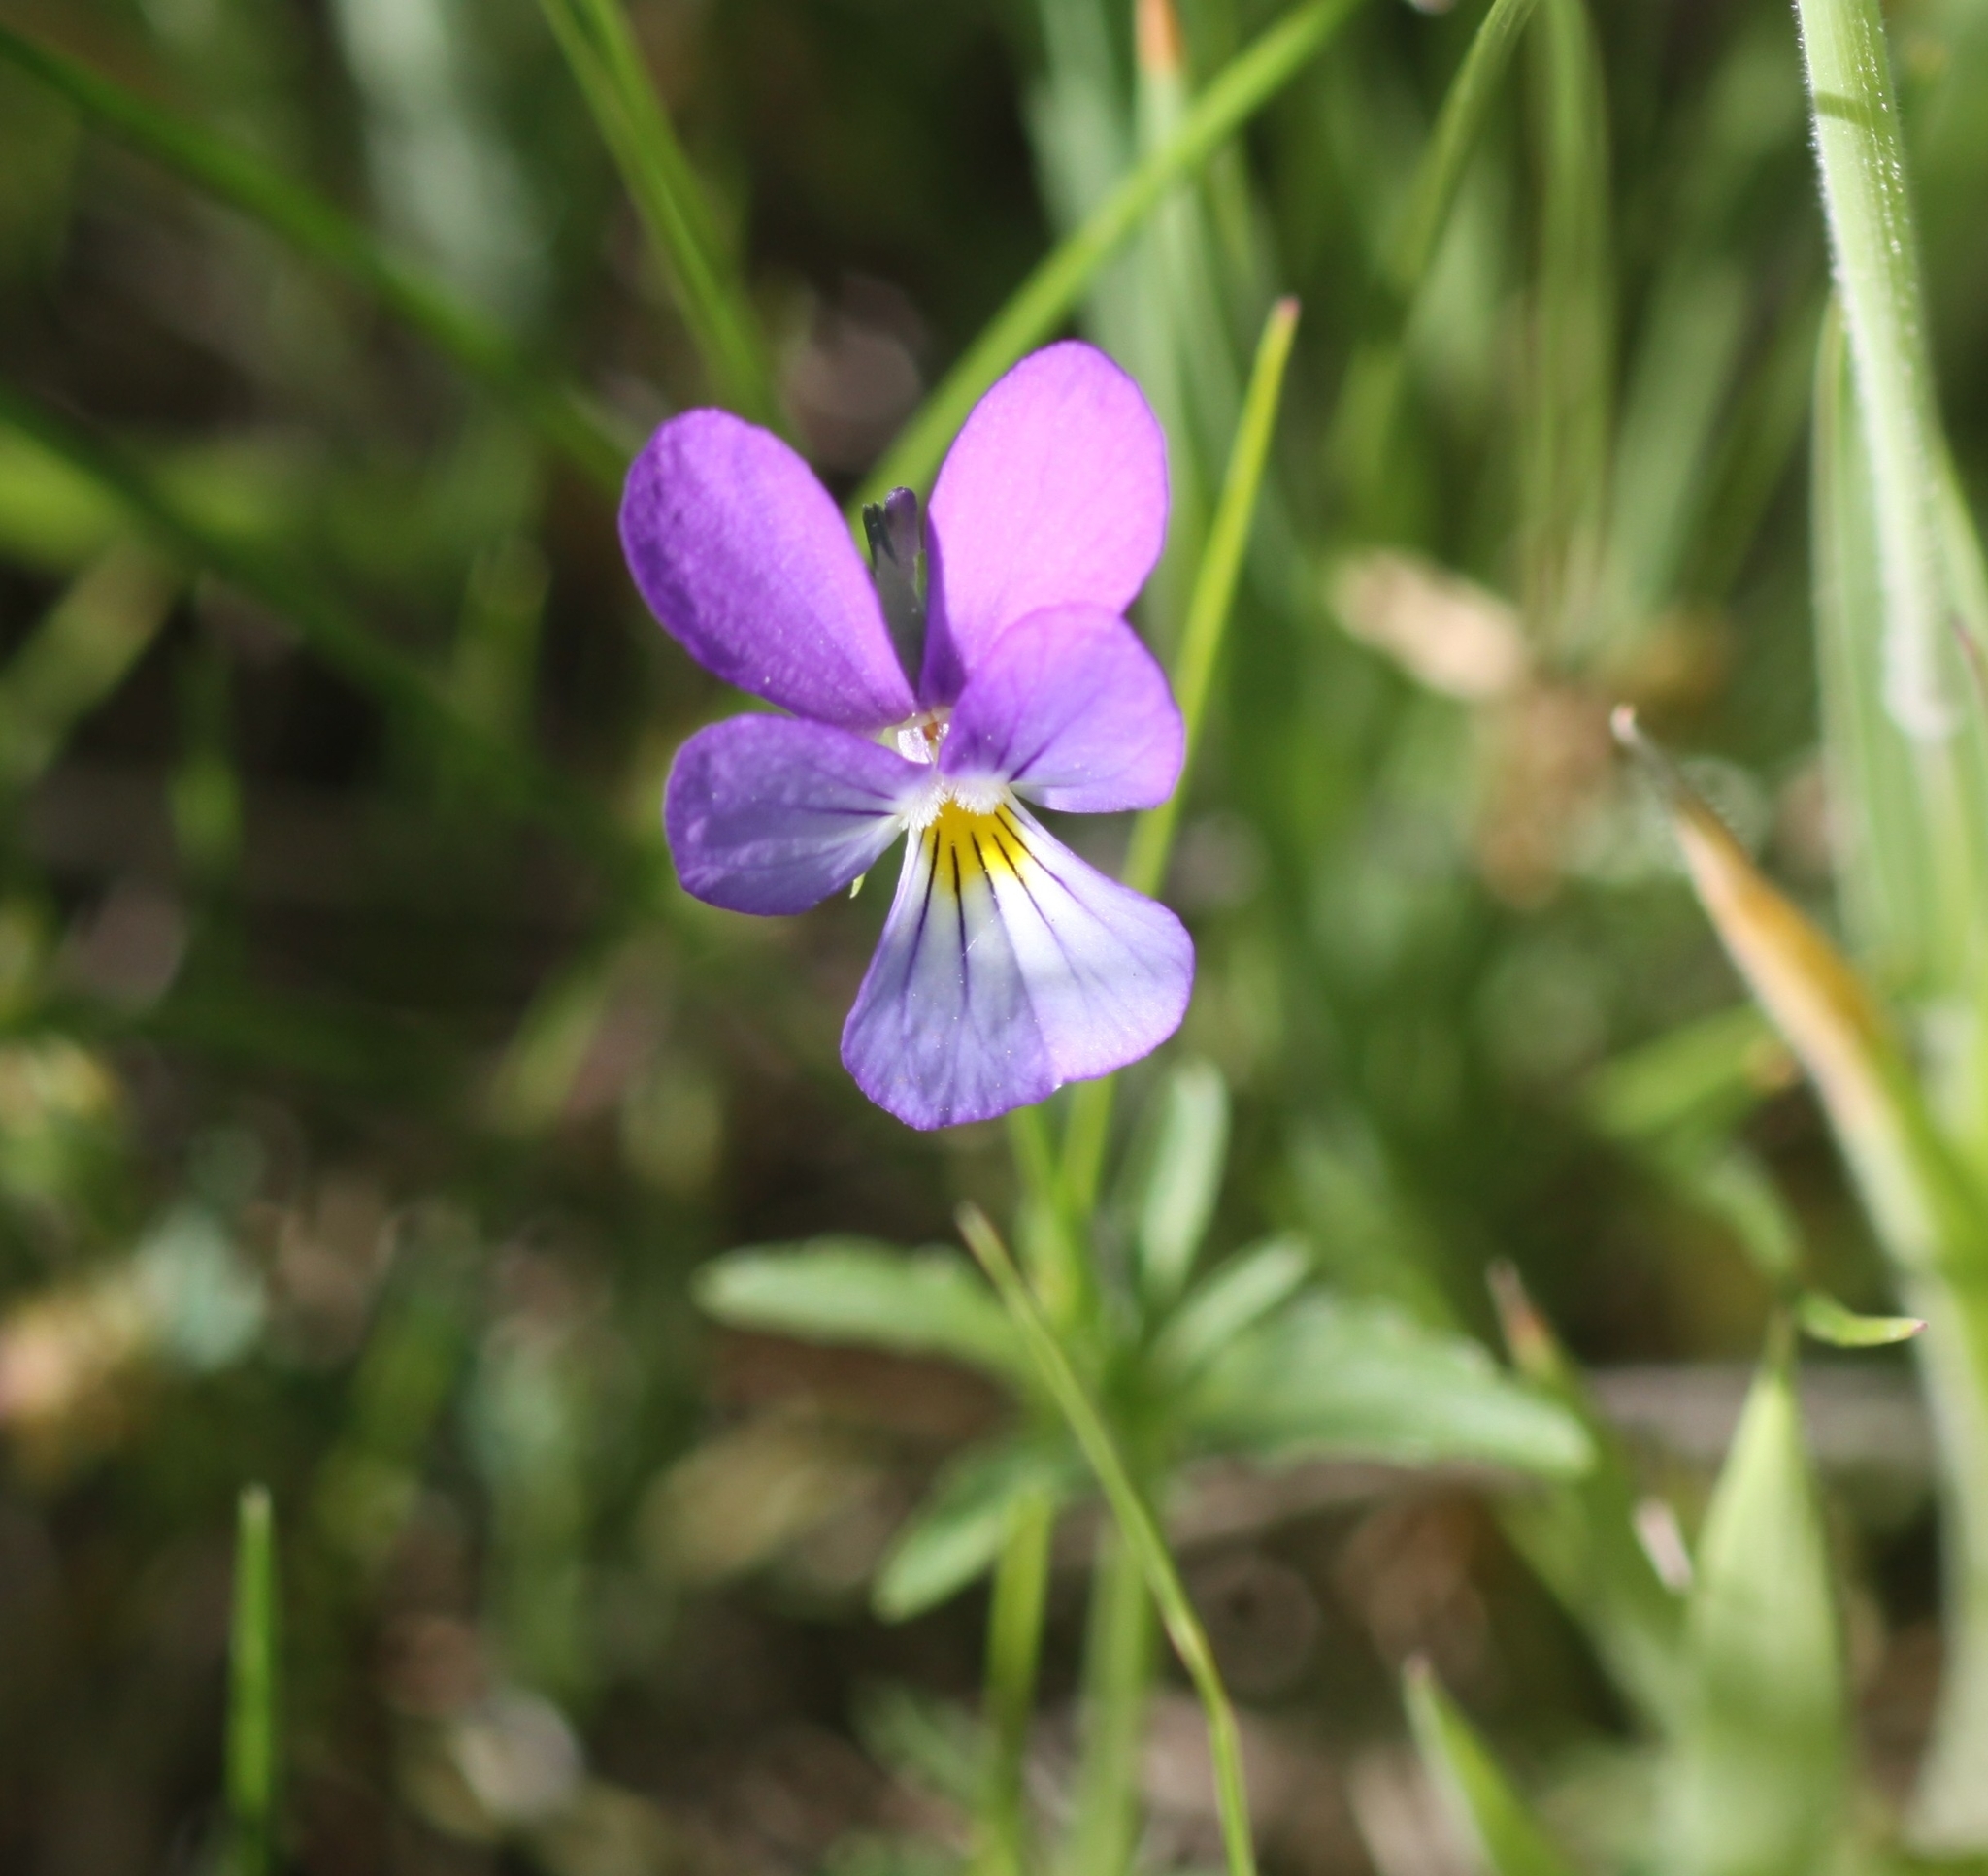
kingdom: Plantae
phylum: Tracheophyta
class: Magnoliopsida
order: Malpighiales
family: Violaceae
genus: Viola
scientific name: Viola tricolor
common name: Pansy
